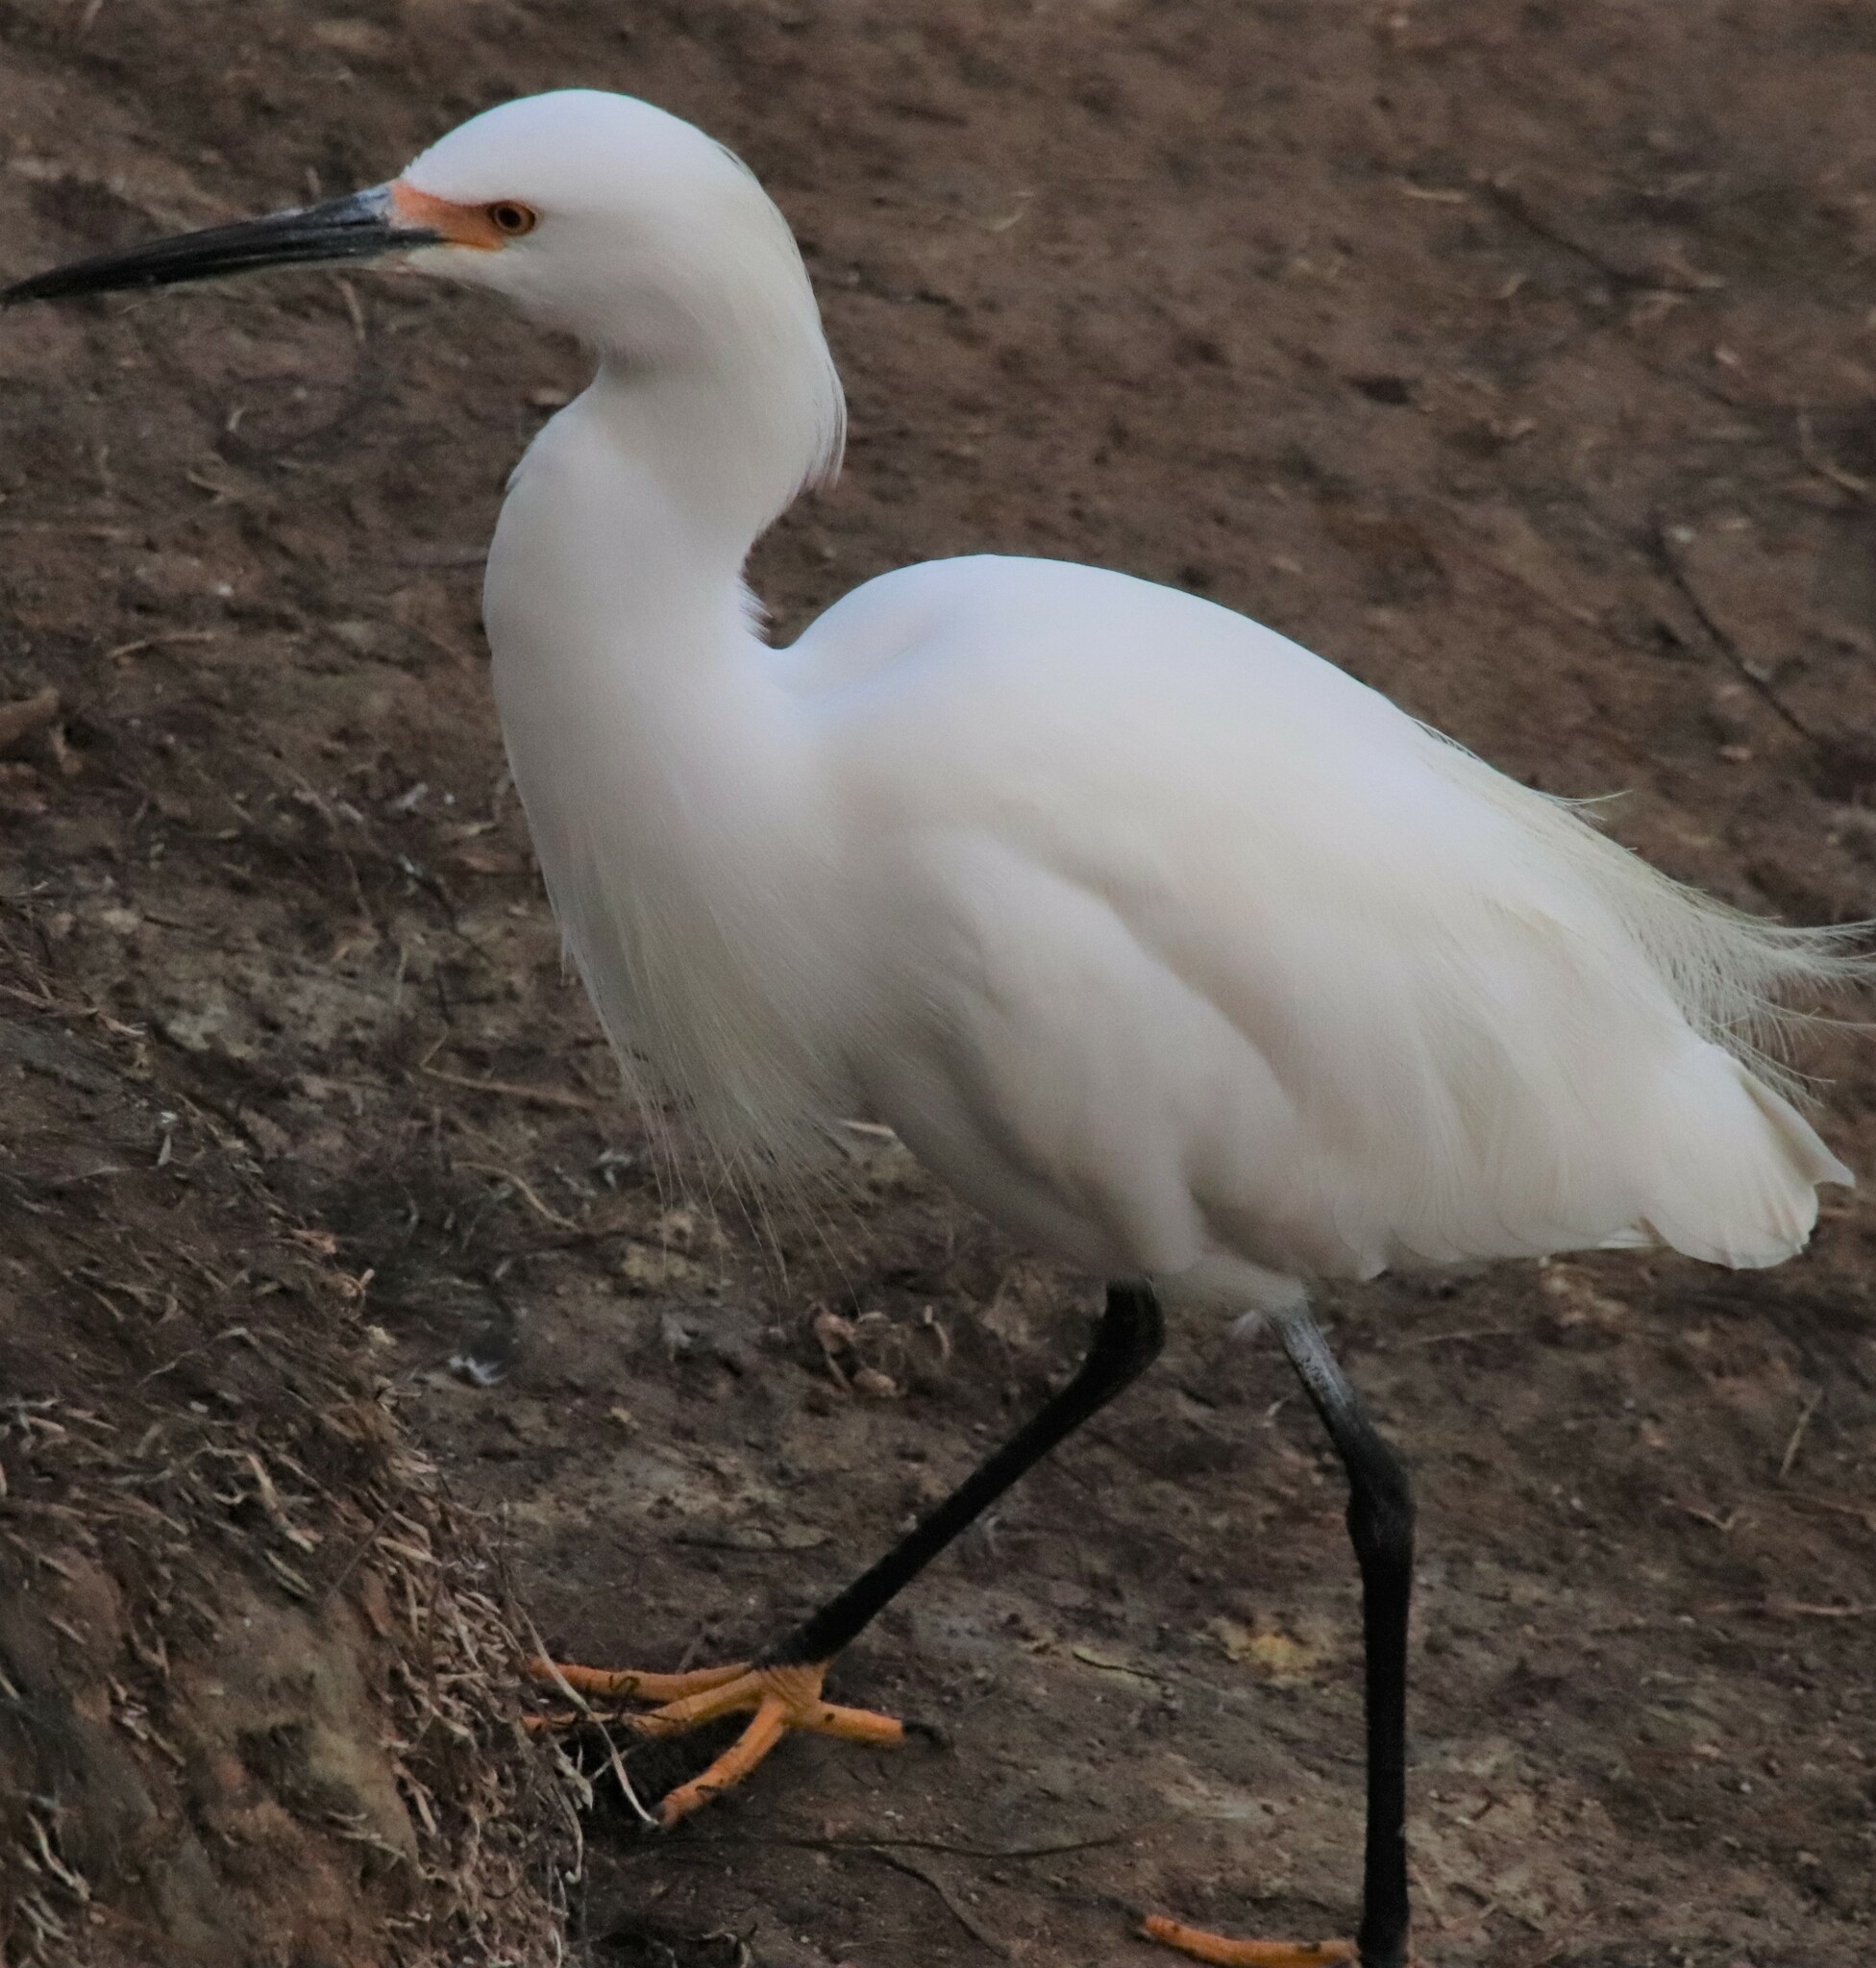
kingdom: Animalia
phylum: Chordata
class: Aves
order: Pelecaniformes
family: Ardeidae
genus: Egretta
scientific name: Egretta thula
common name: Snowy egret
